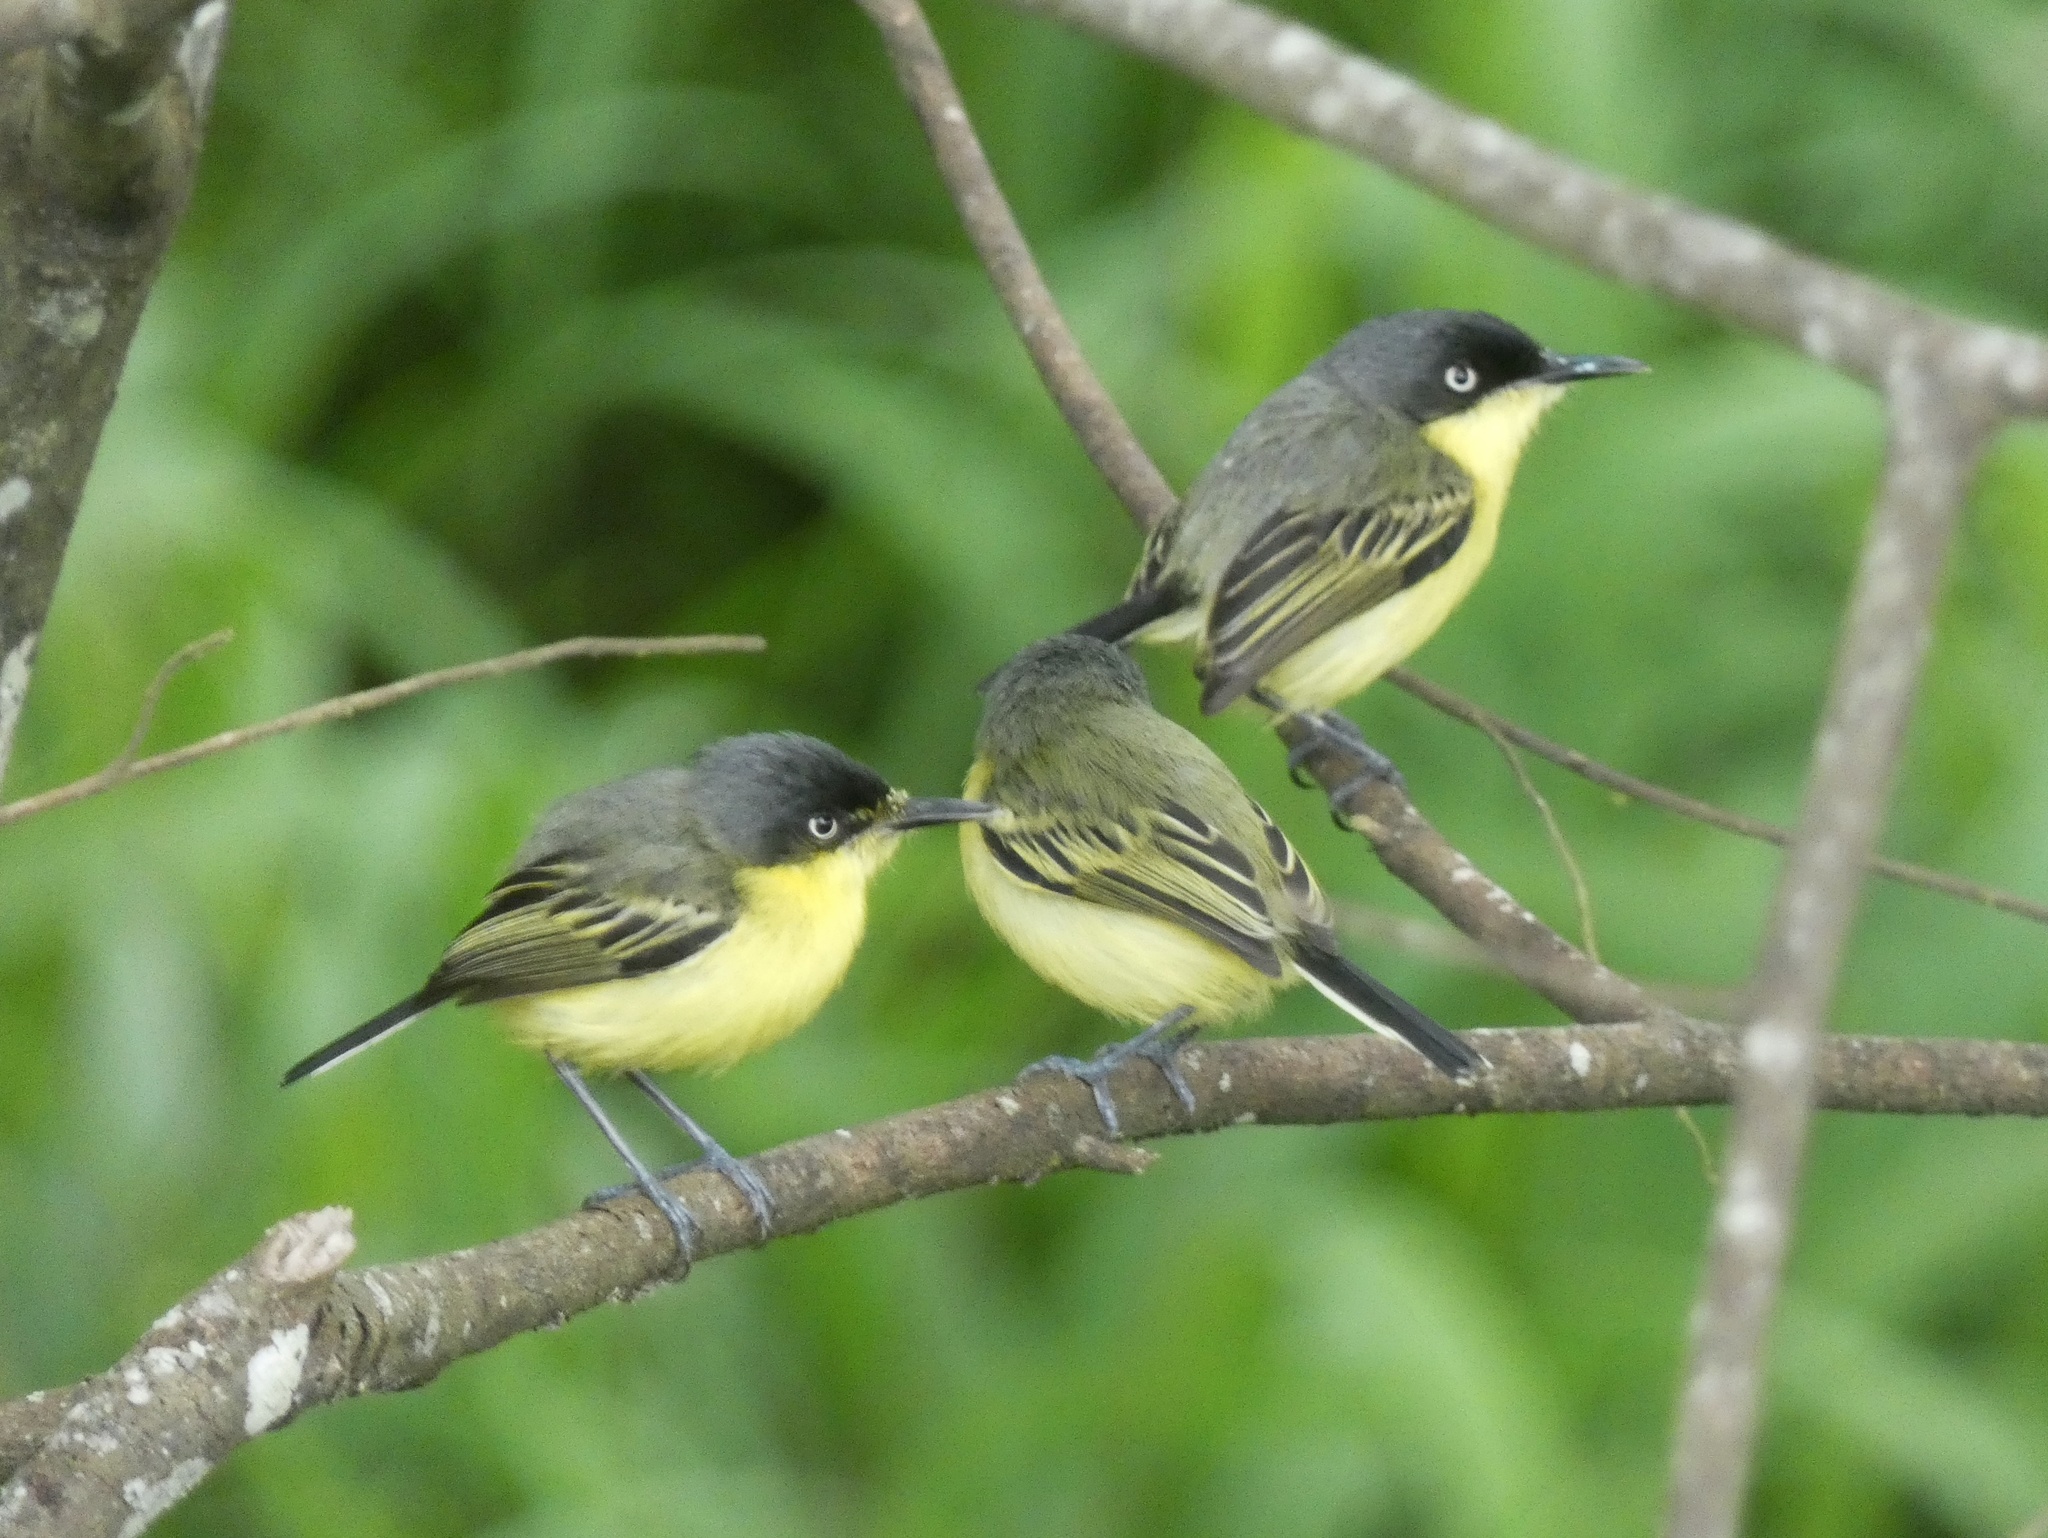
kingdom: Animalia
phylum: Chordata
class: Aves
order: Passeriformes
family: Tyrannidae
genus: Todirostrum
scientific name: Todirostrum cinereum
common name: Common tody-flycatcher
